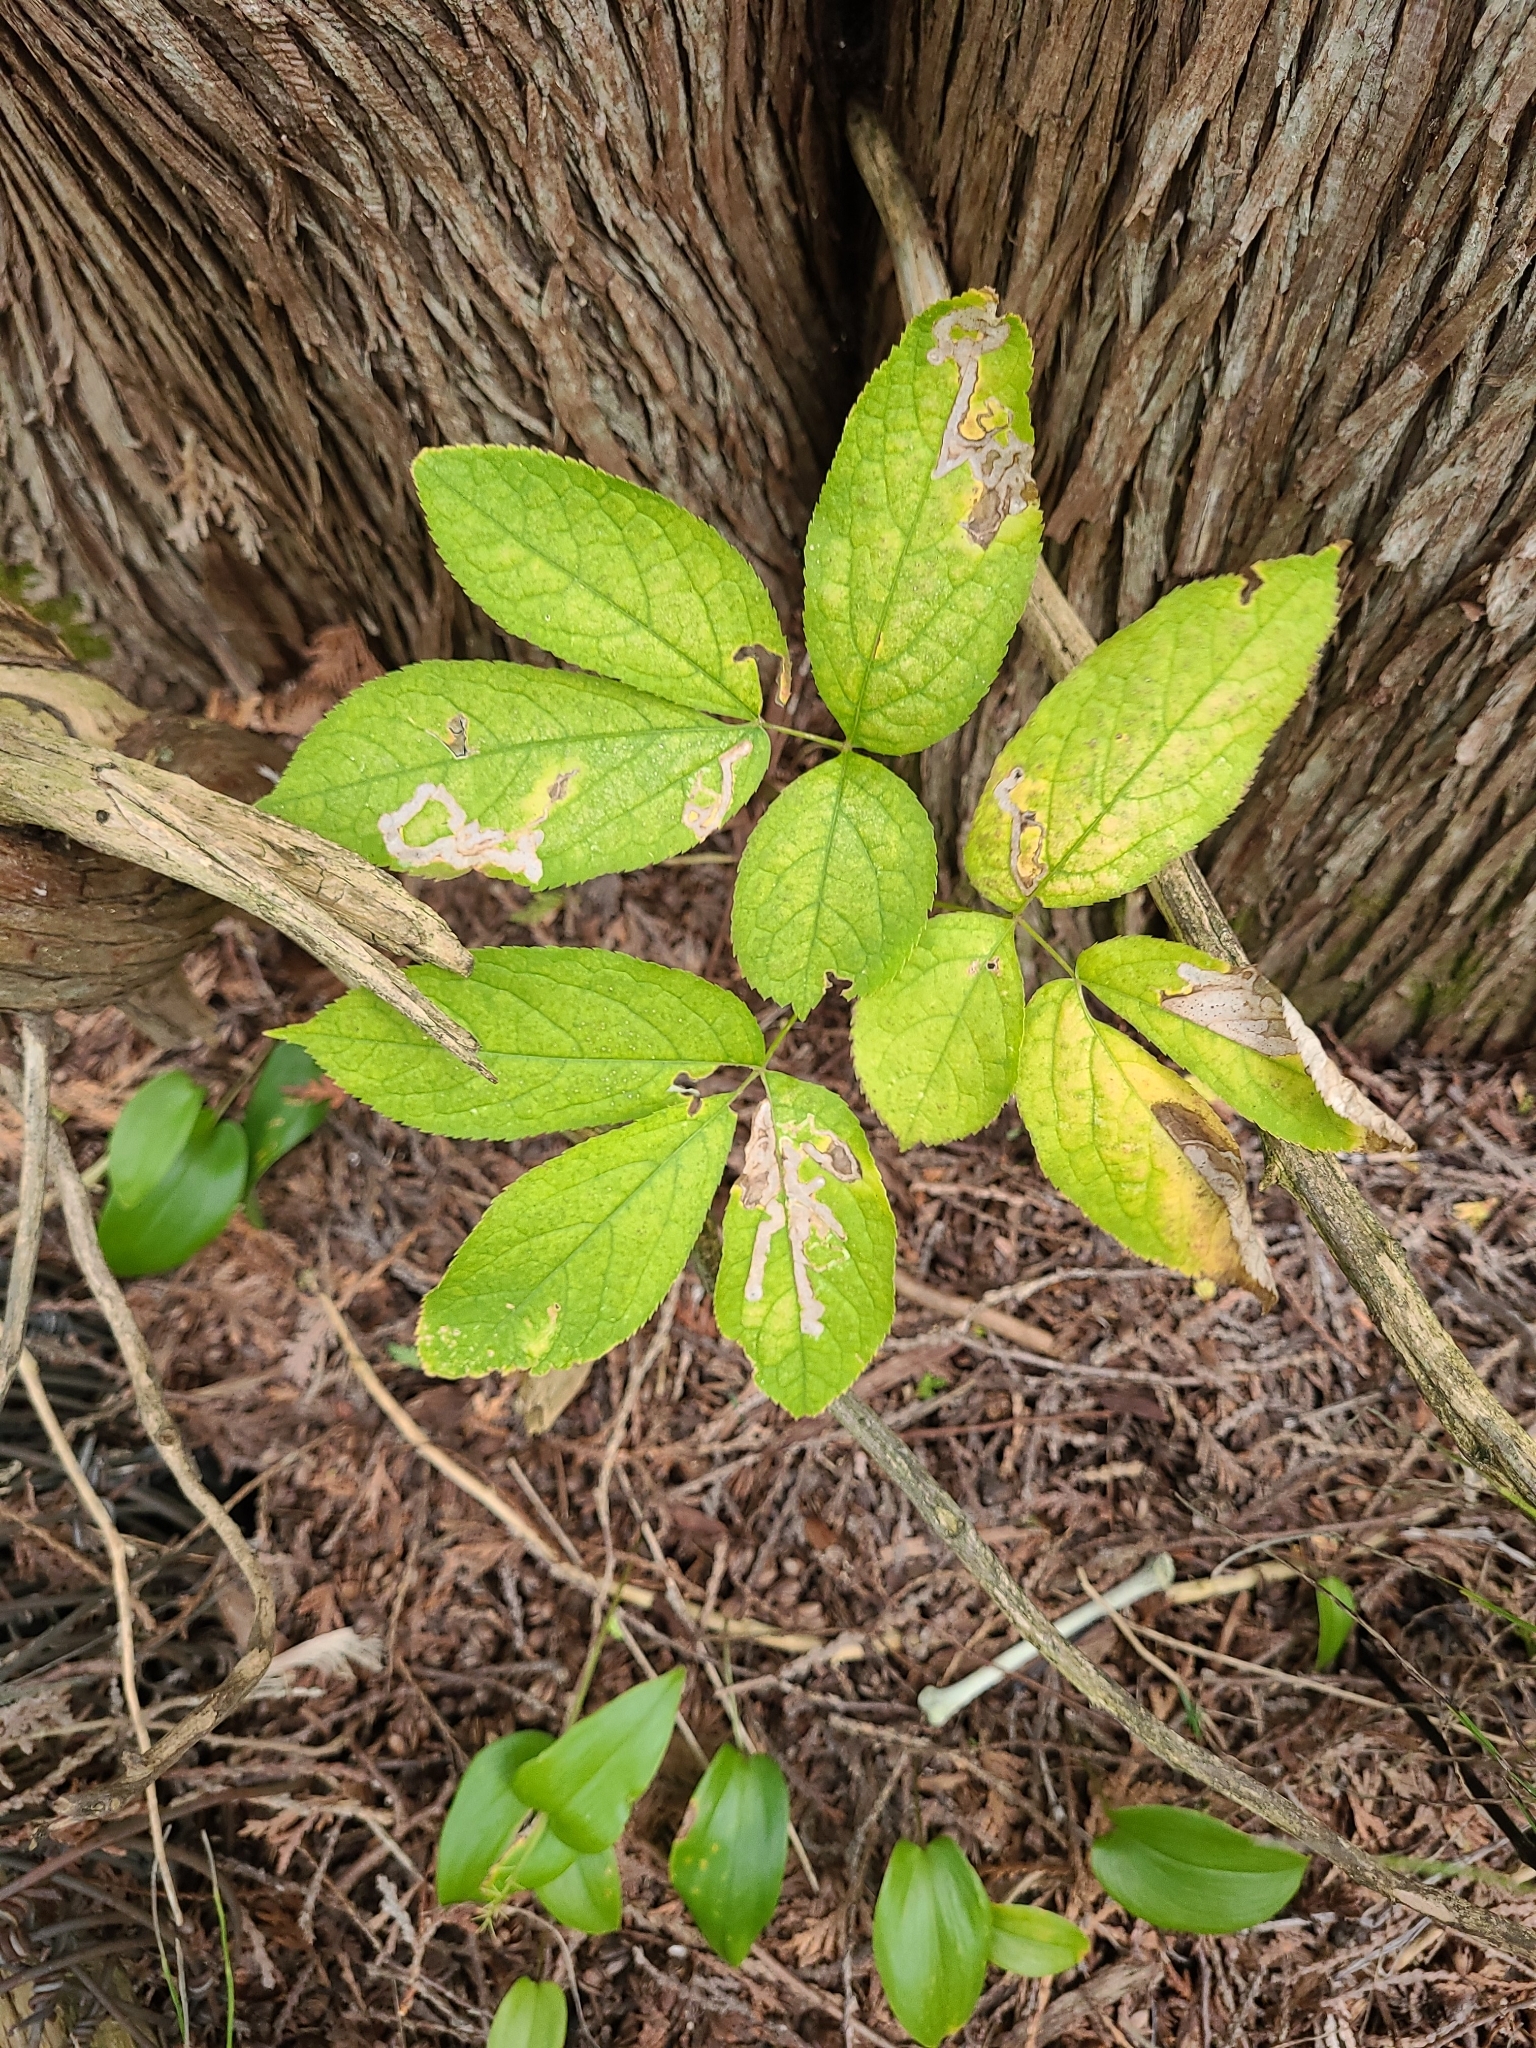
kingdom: Plantae
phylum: Tracheophyta
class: Magnoliopsida
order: Apiales
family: Araliaceae
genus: Aralia
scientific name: Aralia nudicaulis
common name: Wild sarsaparilla
